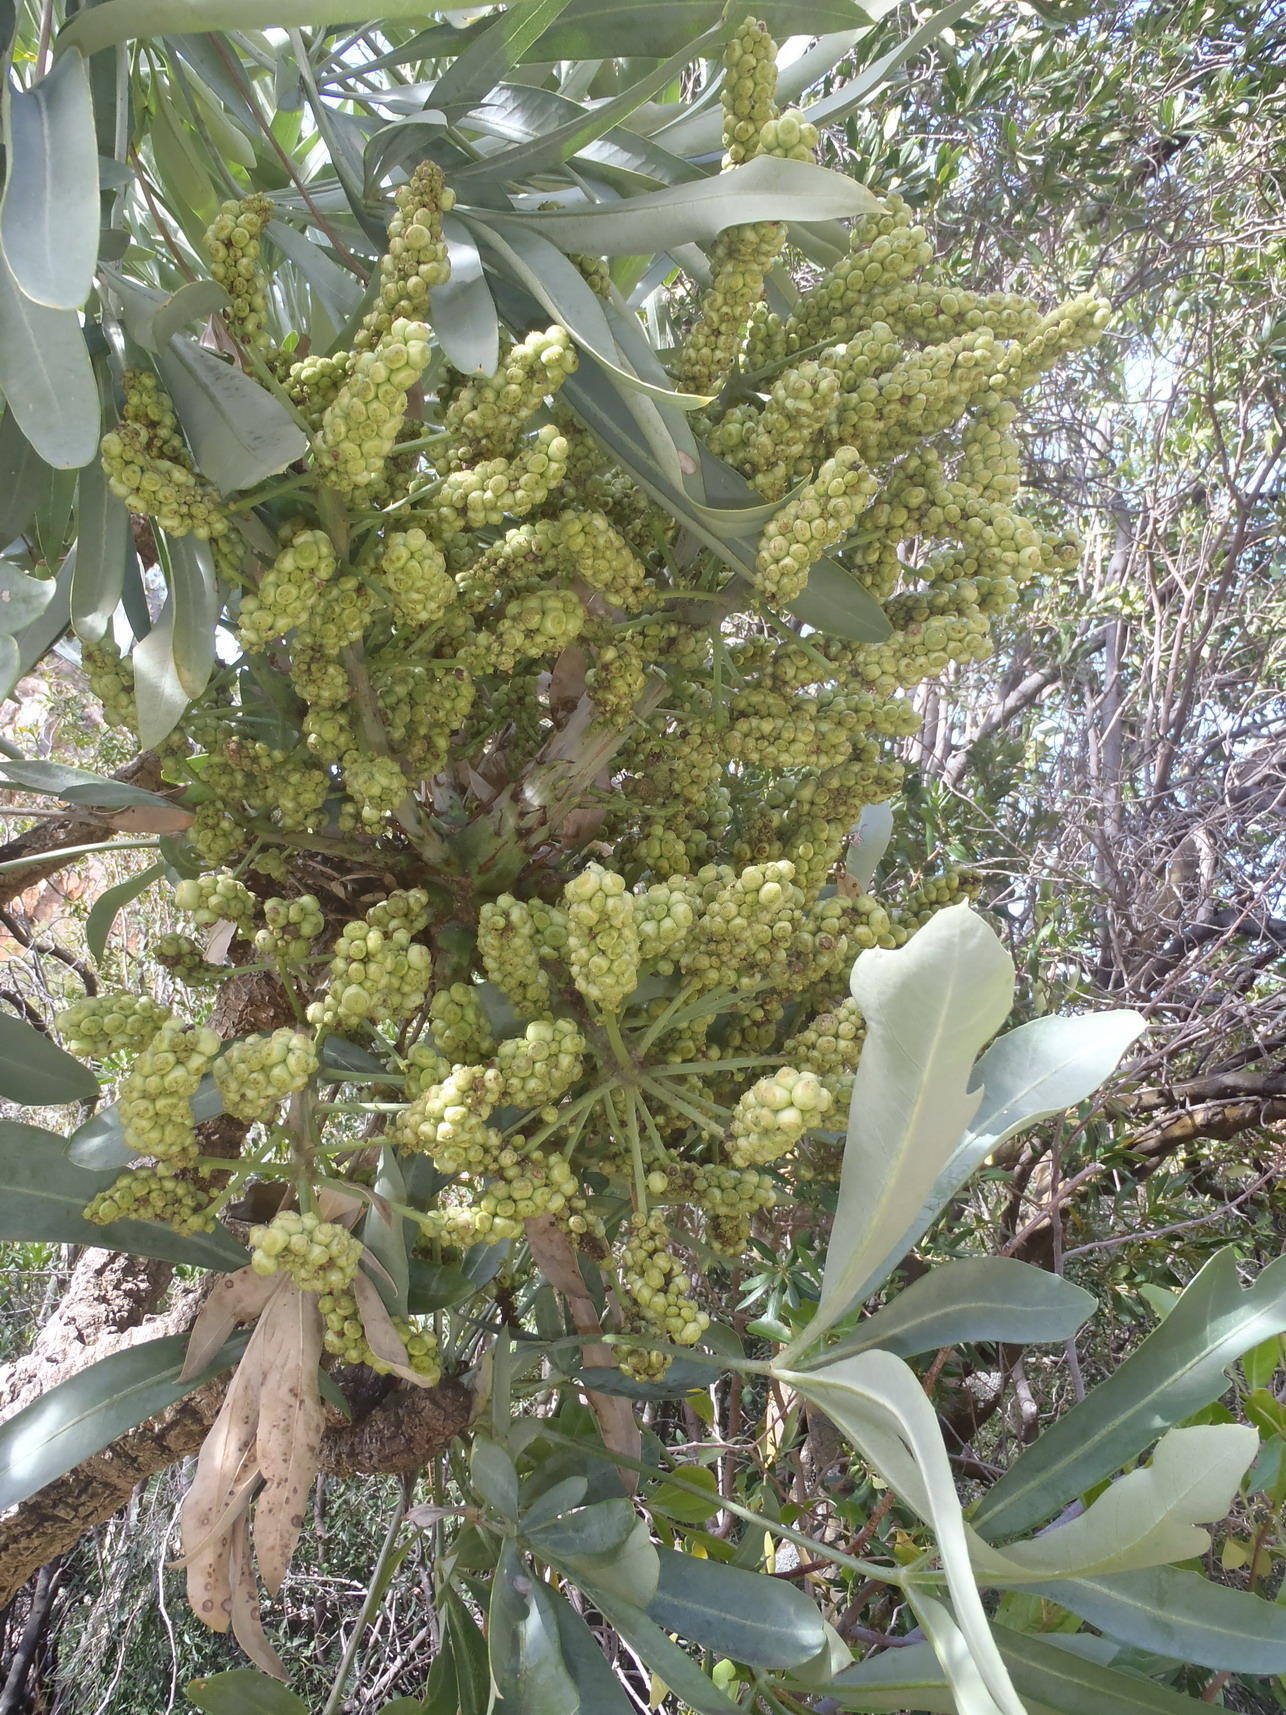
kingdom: Plantae
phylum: Tracheophyta
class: Magnoliopsida
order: Apiales
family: Araliaceae
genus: Cussonia
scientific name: Cussonia paniculata
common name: Cabbagetree
